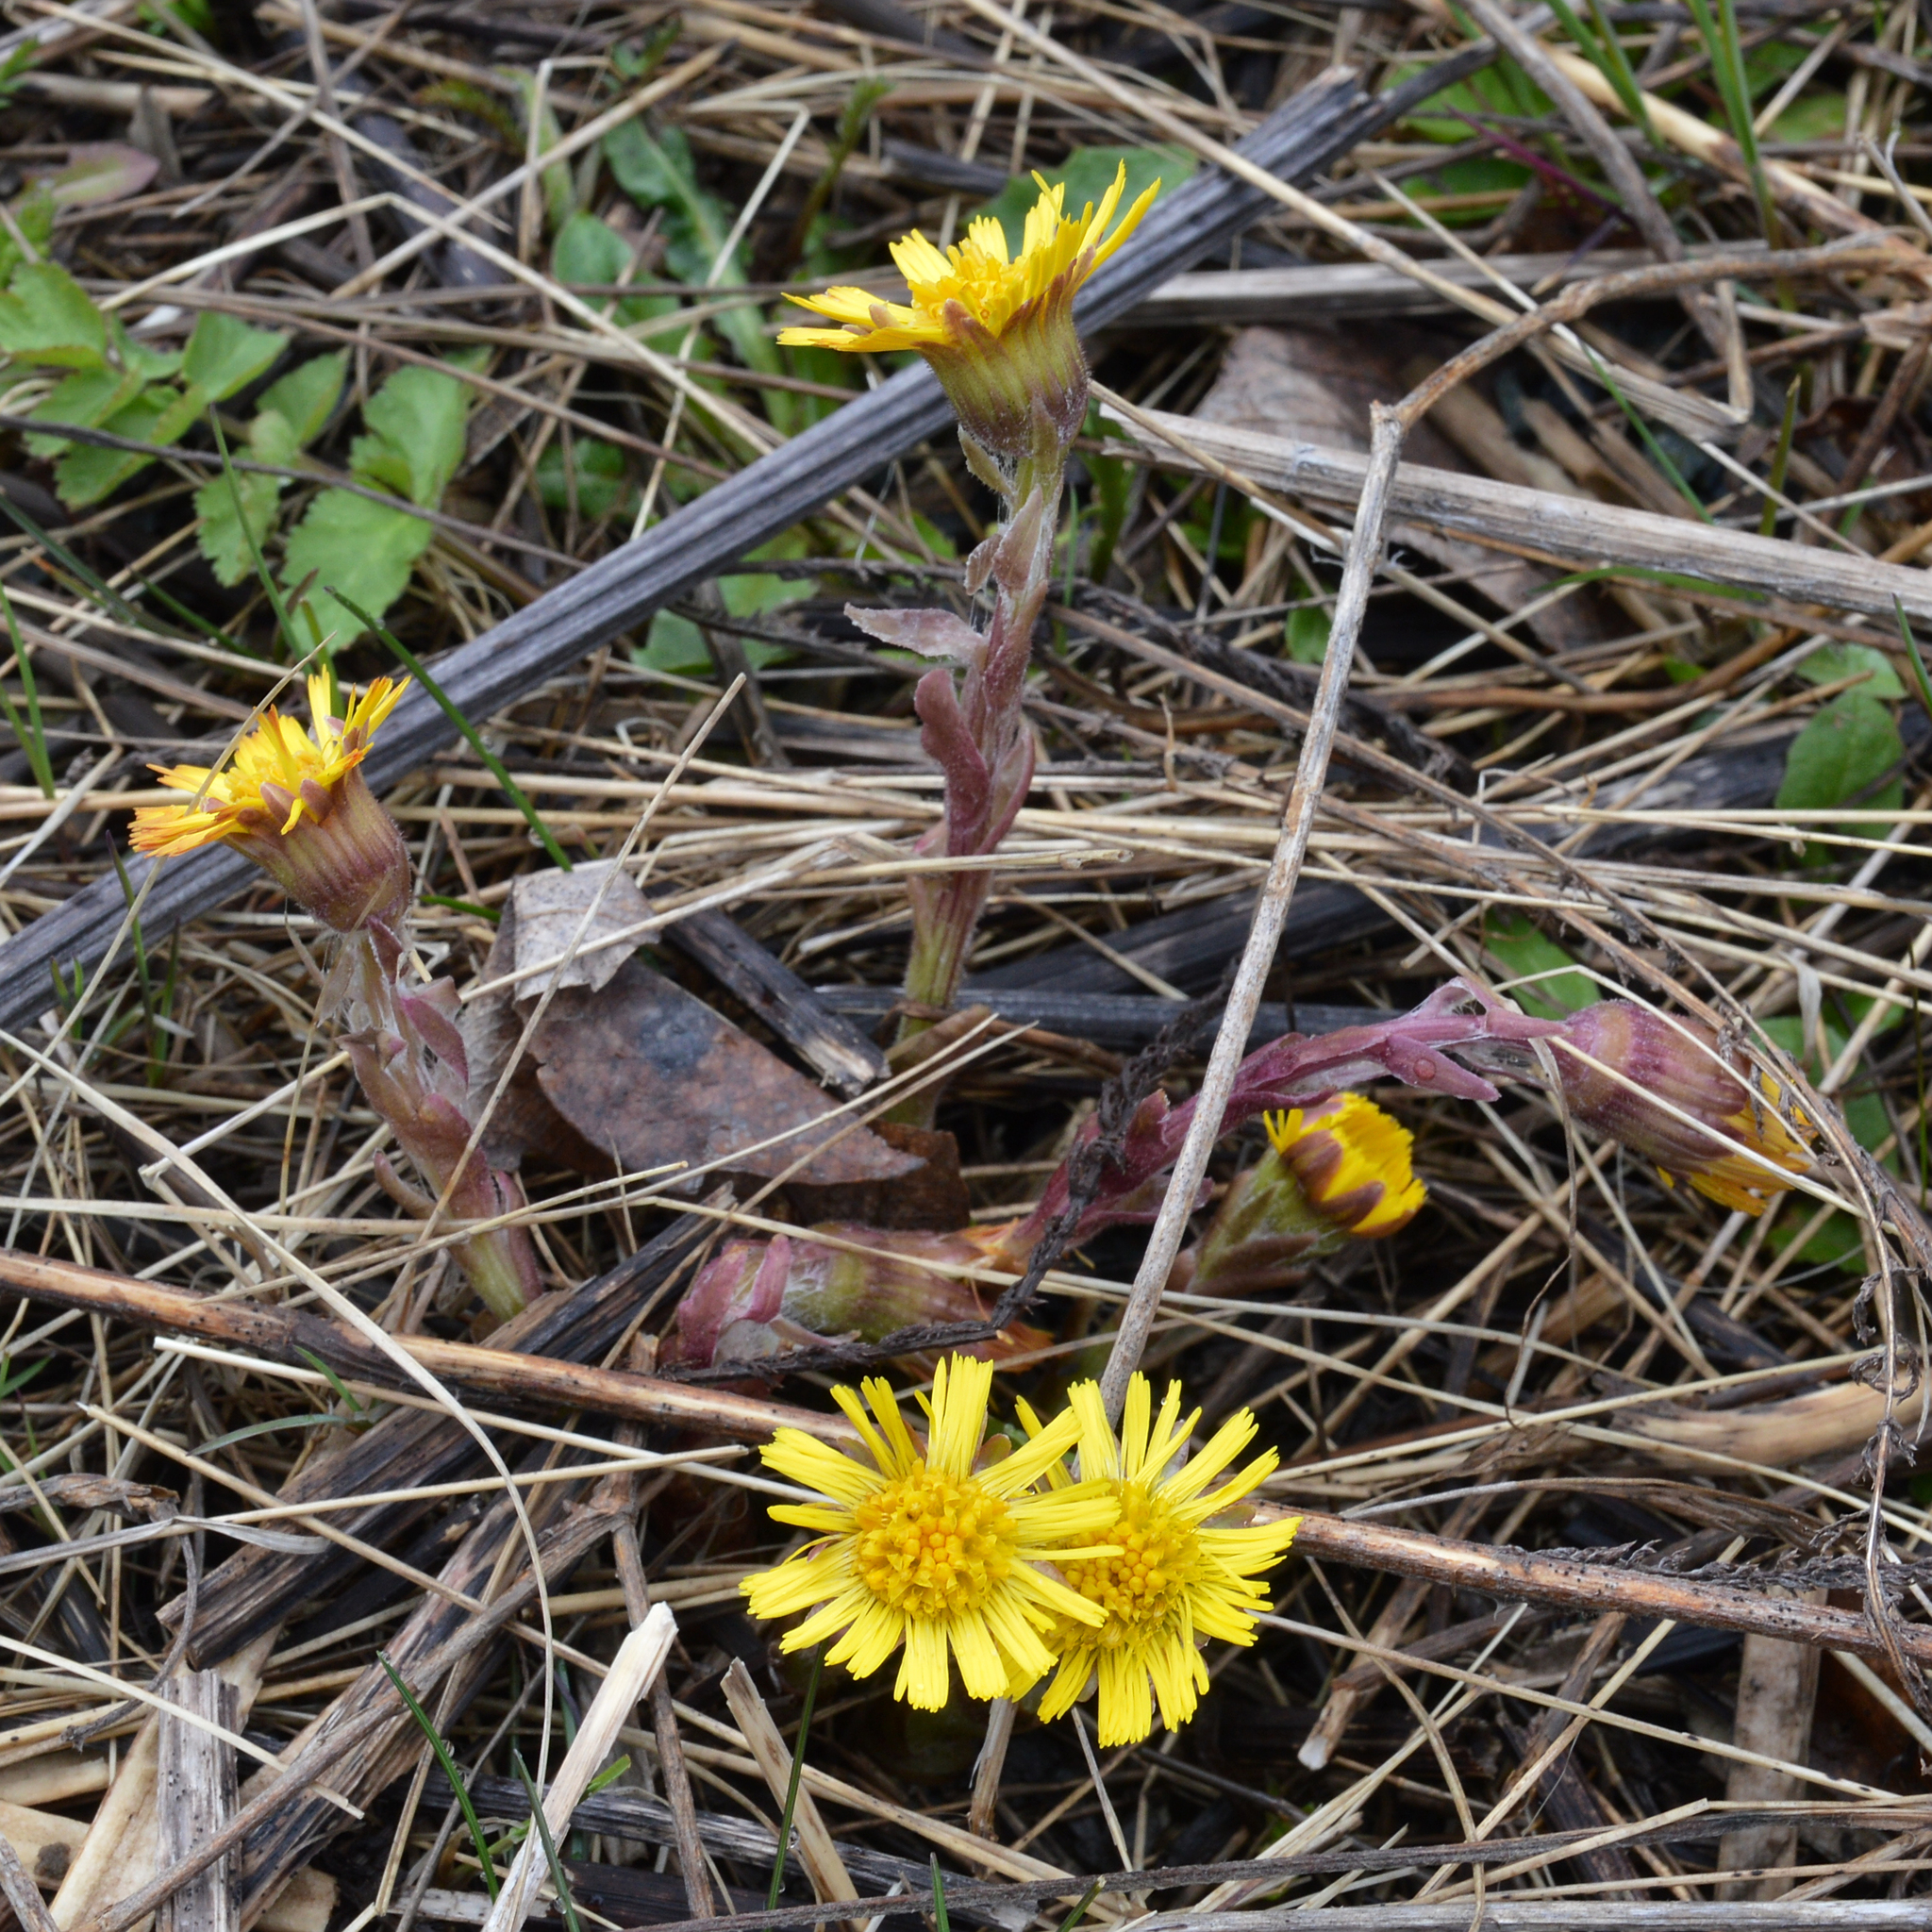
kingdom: Plantae
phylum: Tracheophyta
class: Magnoliopsida
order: Asterales
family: Asteraceae
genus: Tussilago
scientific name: Tussilago farfara
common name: Coltsfoot
